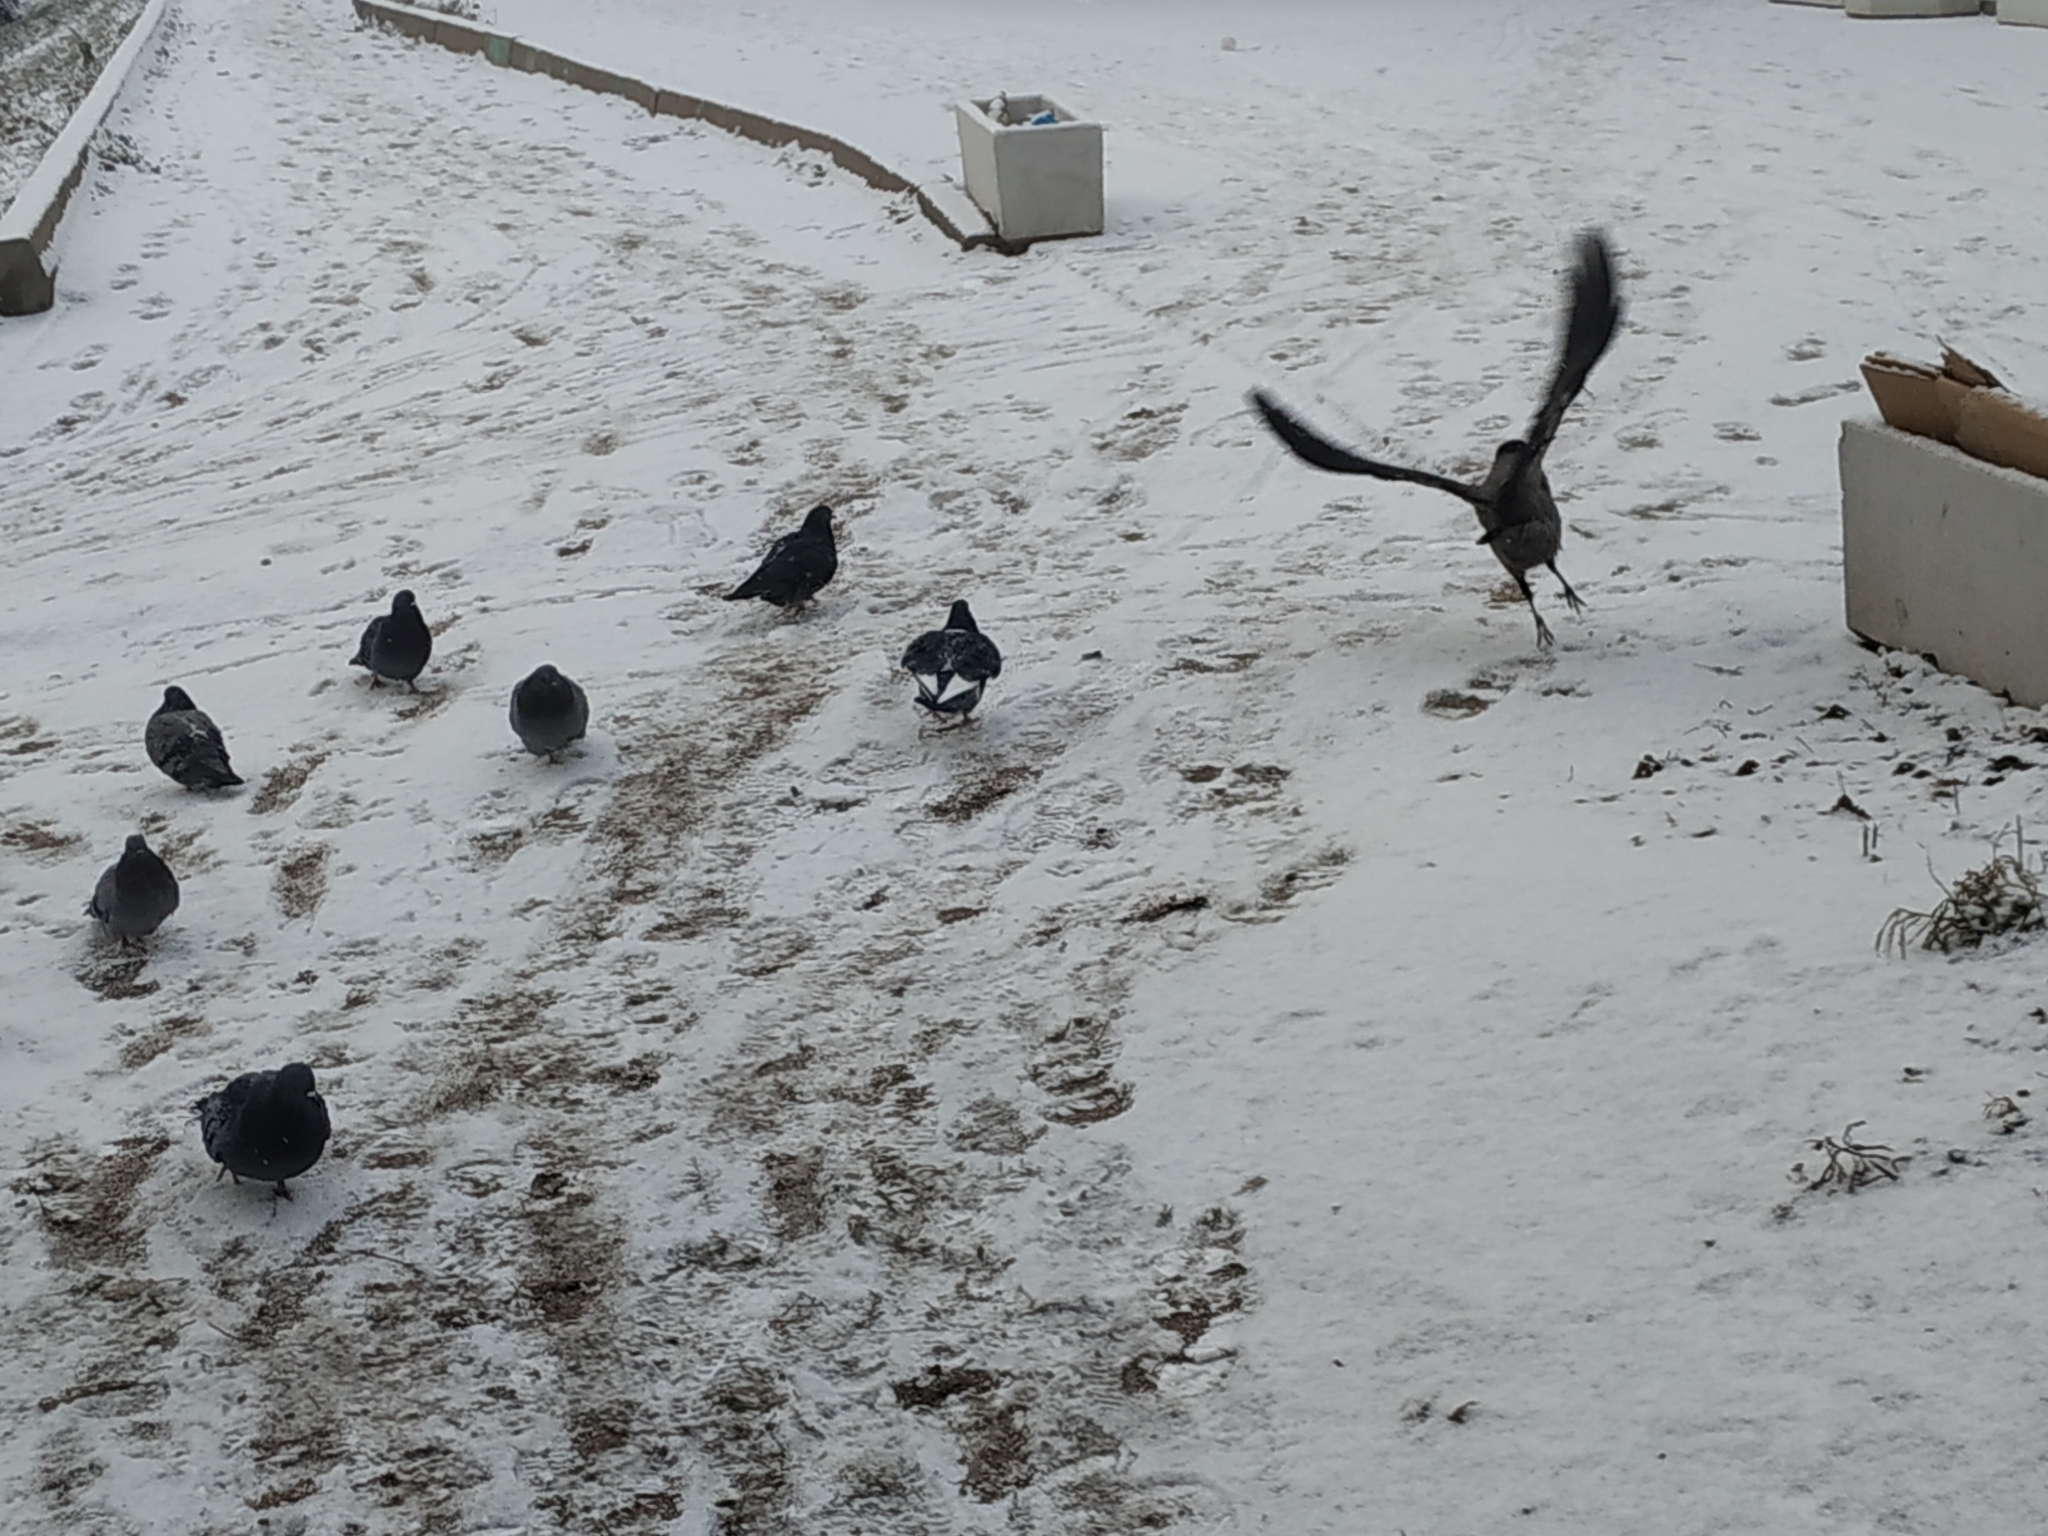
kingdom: Animalia
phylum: Chordata
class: Aves
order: Columbiformes
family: Columbidae
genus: Columba
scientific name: Columba livia
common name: Rock pigeon
